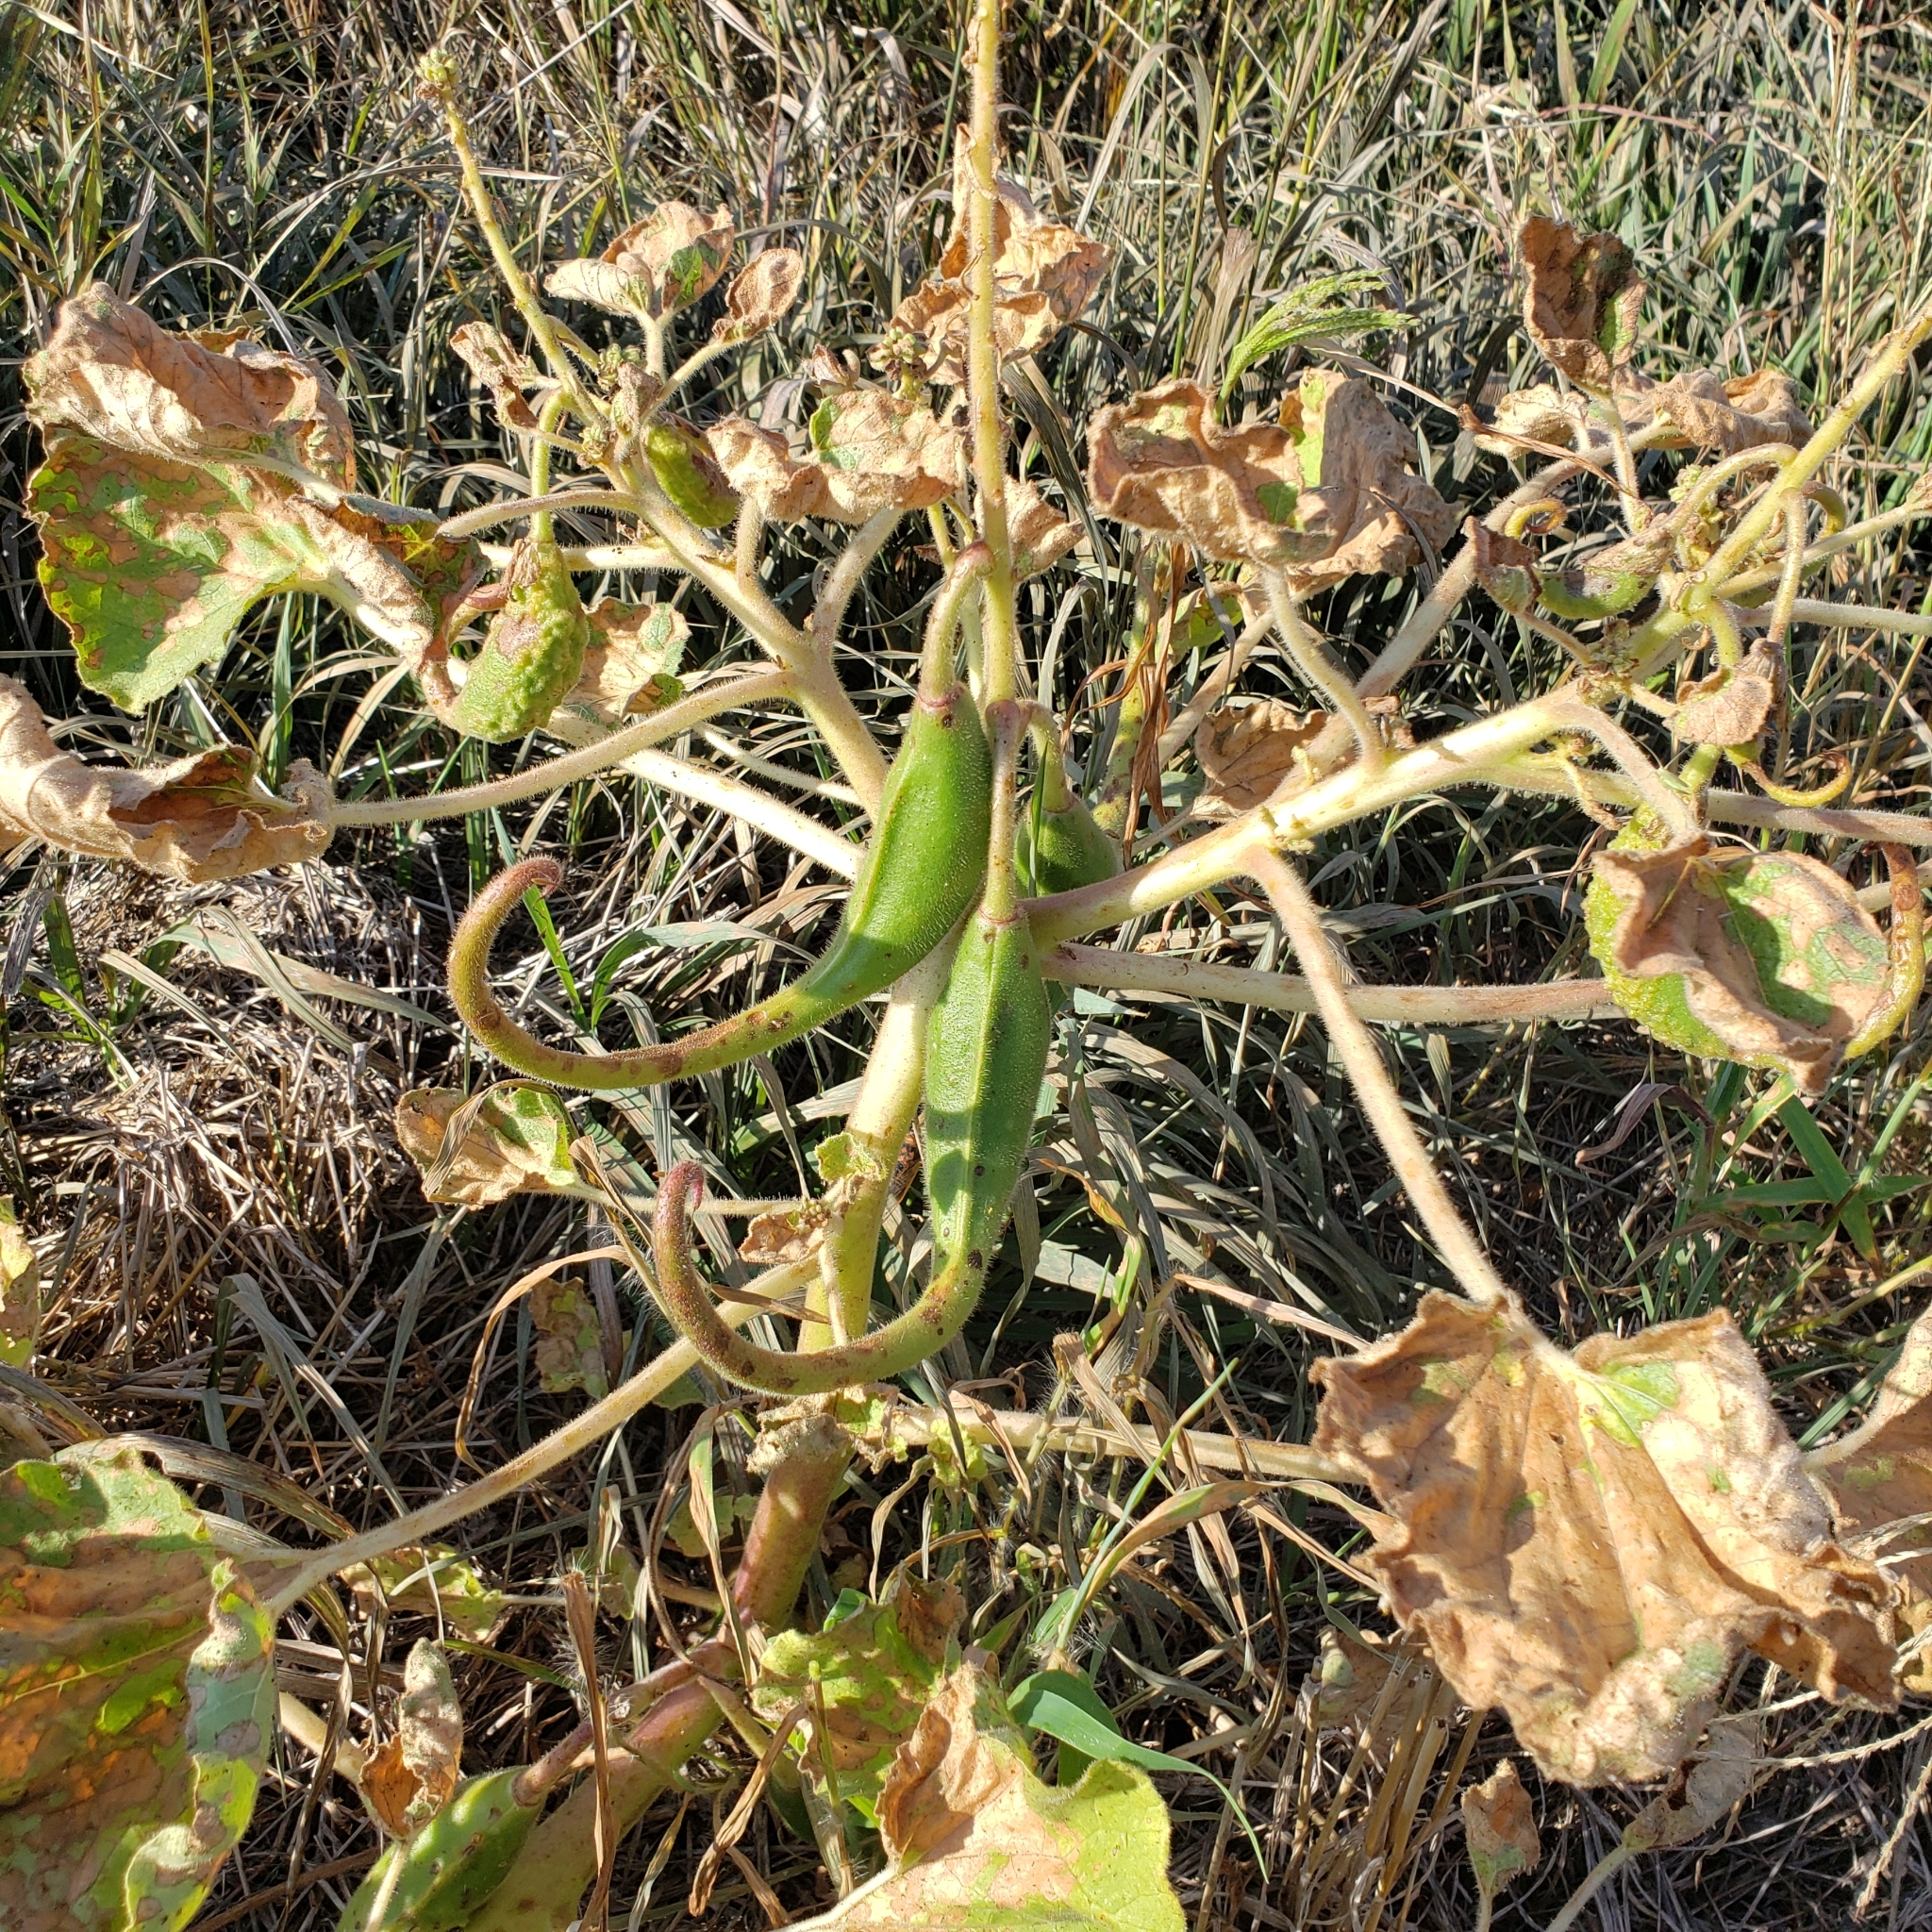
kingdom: Plantae
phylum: Tracheophyta
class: Magnoliopsida
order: Lamiales
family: Martyniaceae
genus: Proboscidea
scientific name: Proboscidea louisianica
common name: Elephant tusks
